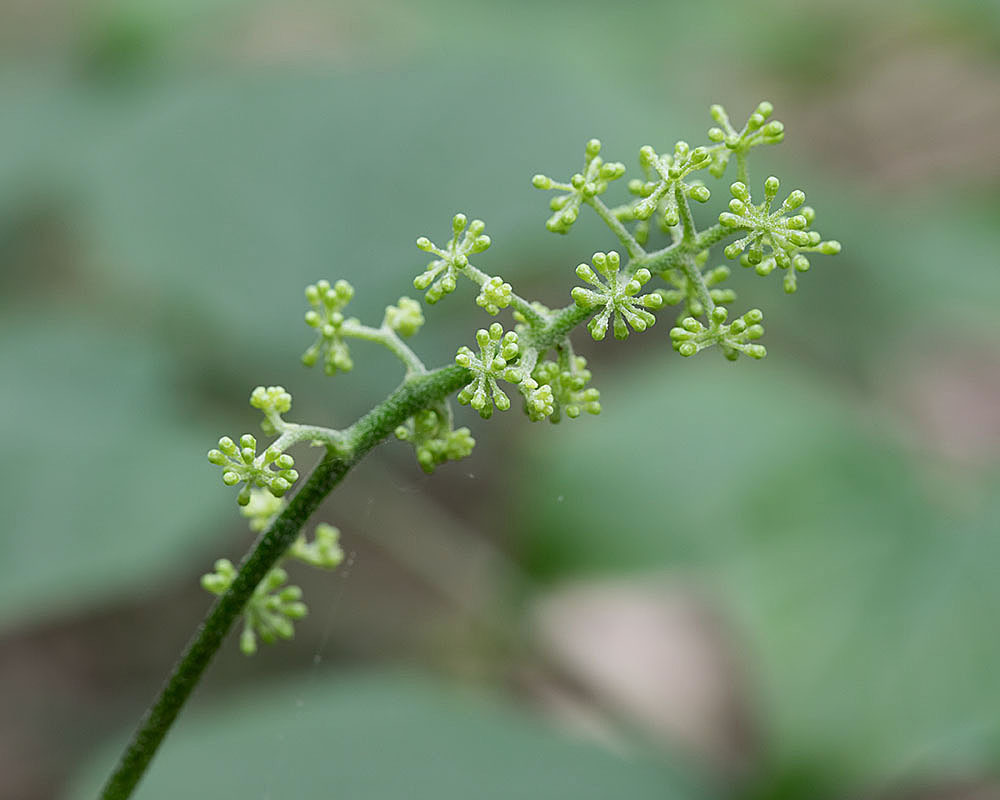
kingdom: Plantae
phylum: Tracheophyta
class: Magnoliopsida
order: Apiales
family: Araliaceae
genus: Aralia
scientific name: Aralia racemosa
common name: American-spikenard
